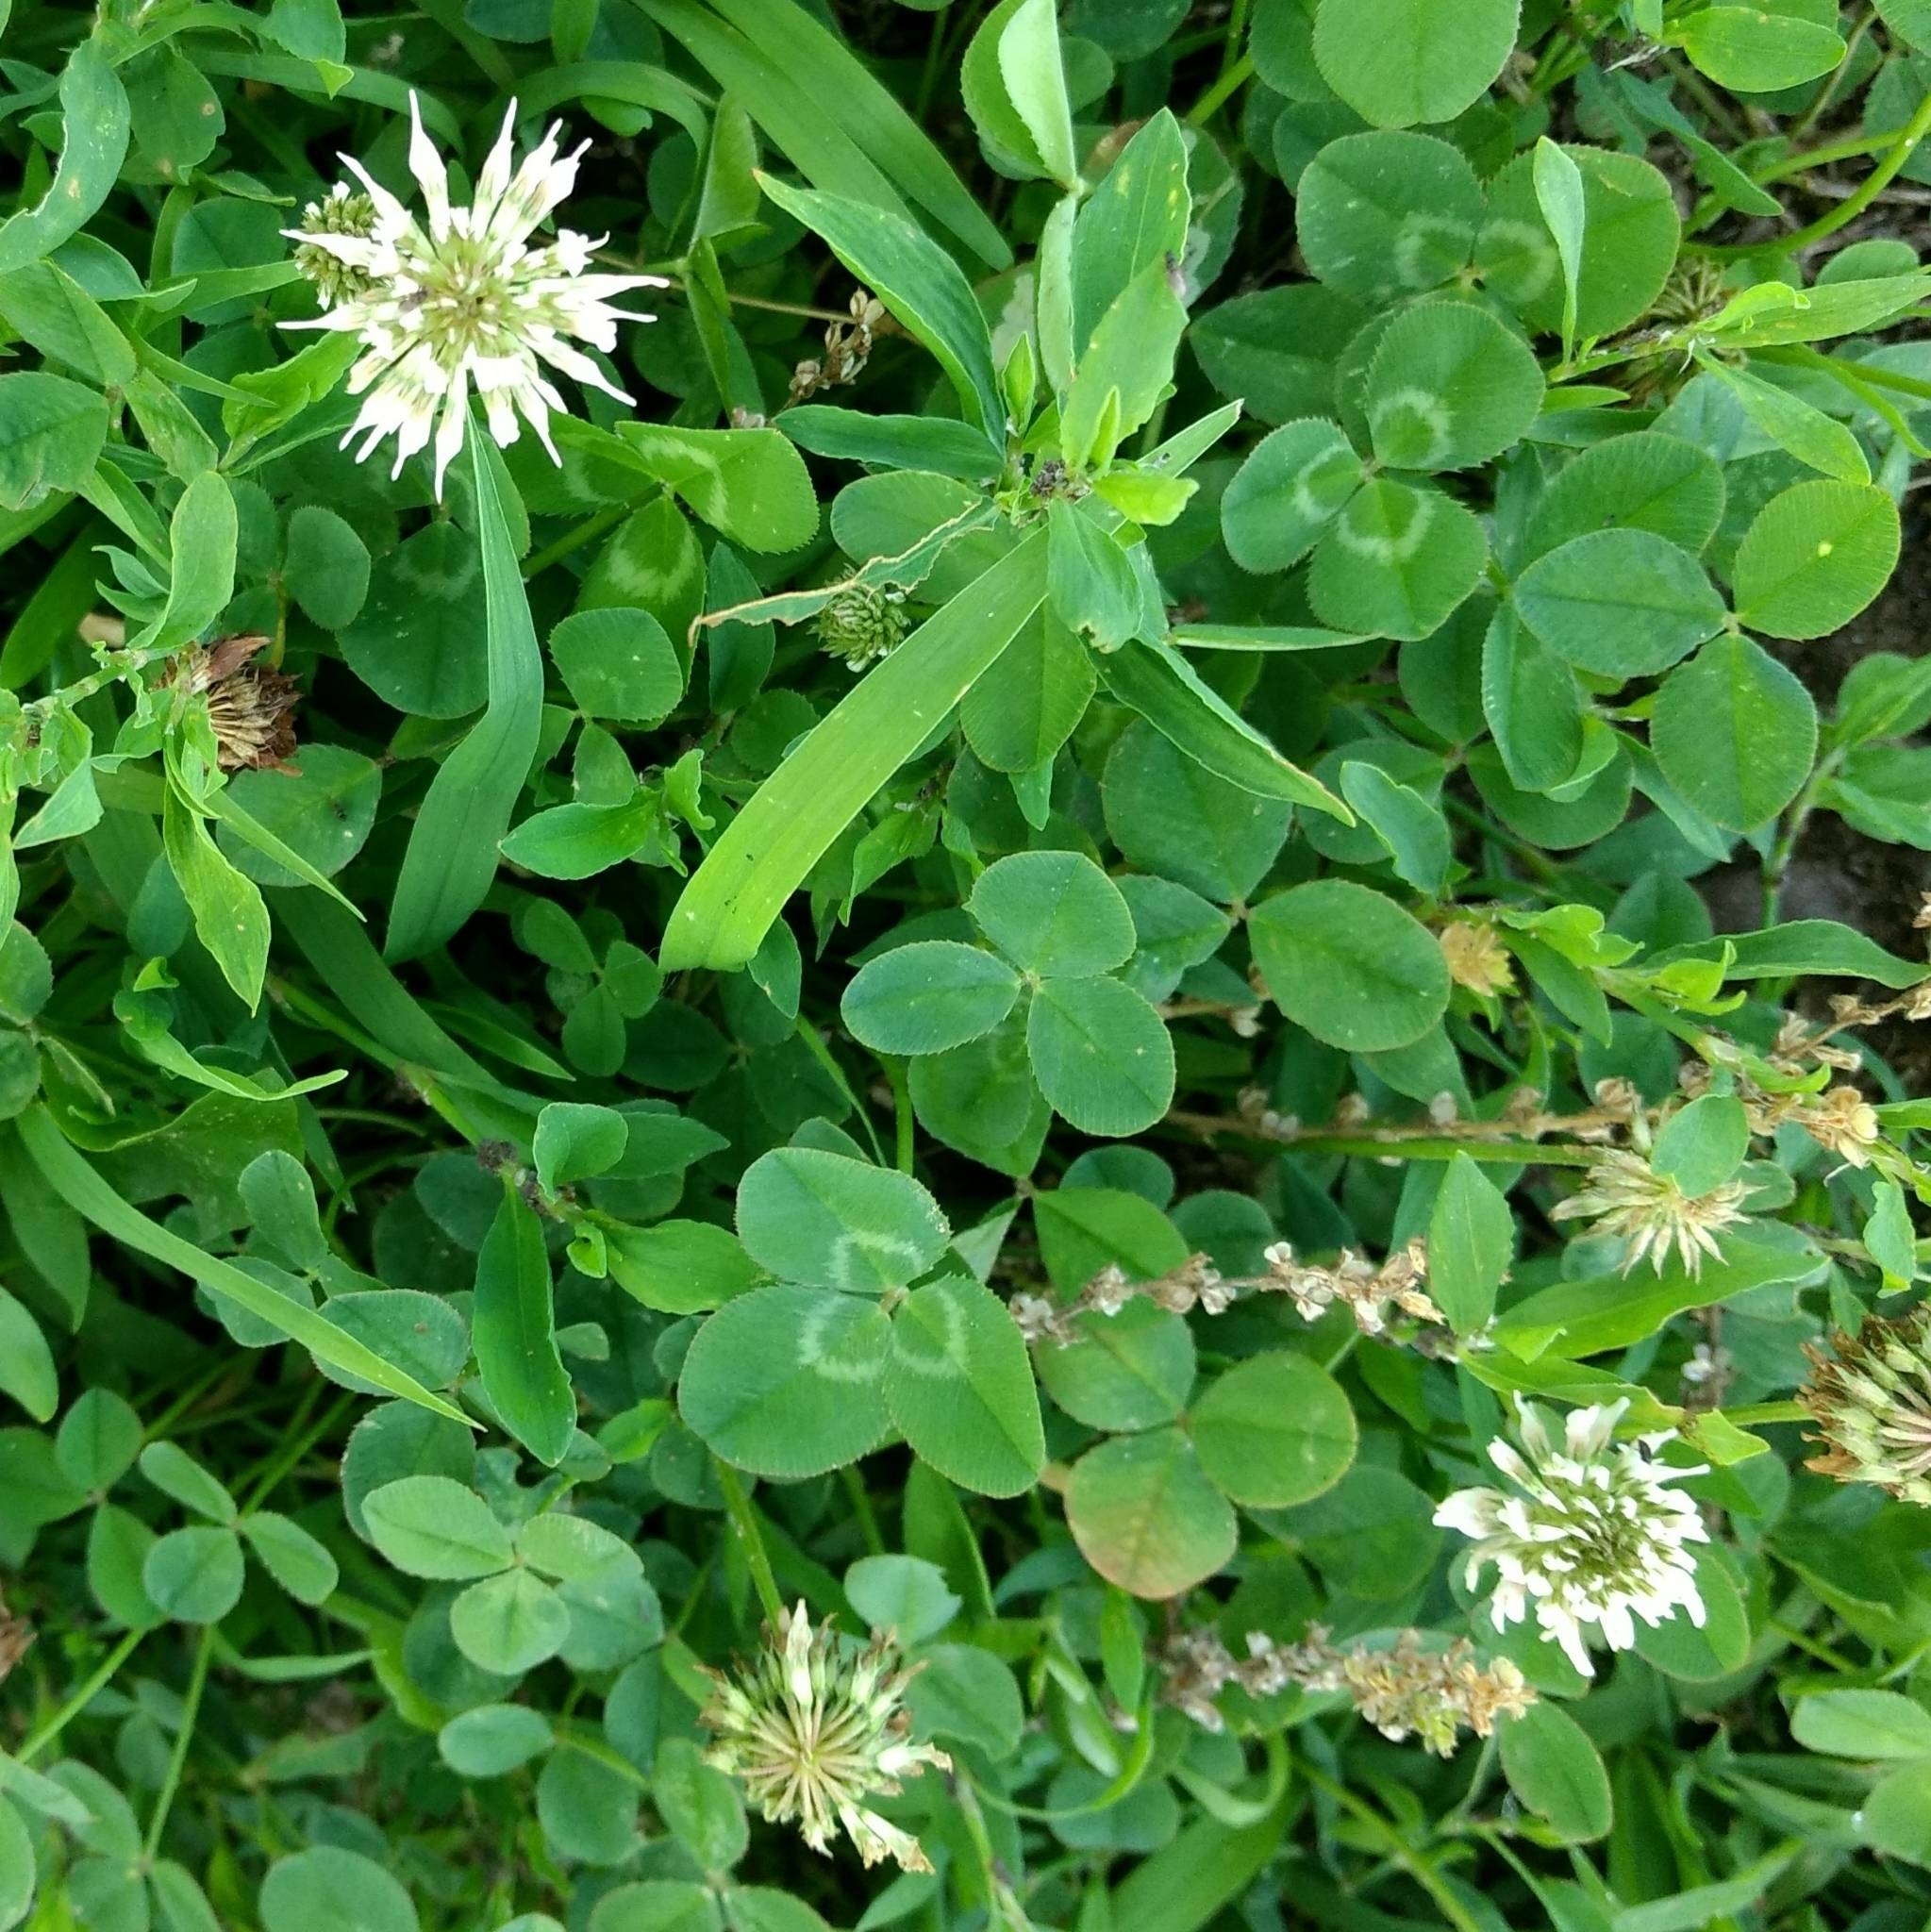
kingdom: Plantae
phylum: Tracheophyta
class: Magnoliopsida
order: Fabales
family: Fabaceae
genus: Trifolium
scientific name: Trifolium repens
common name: White clover
